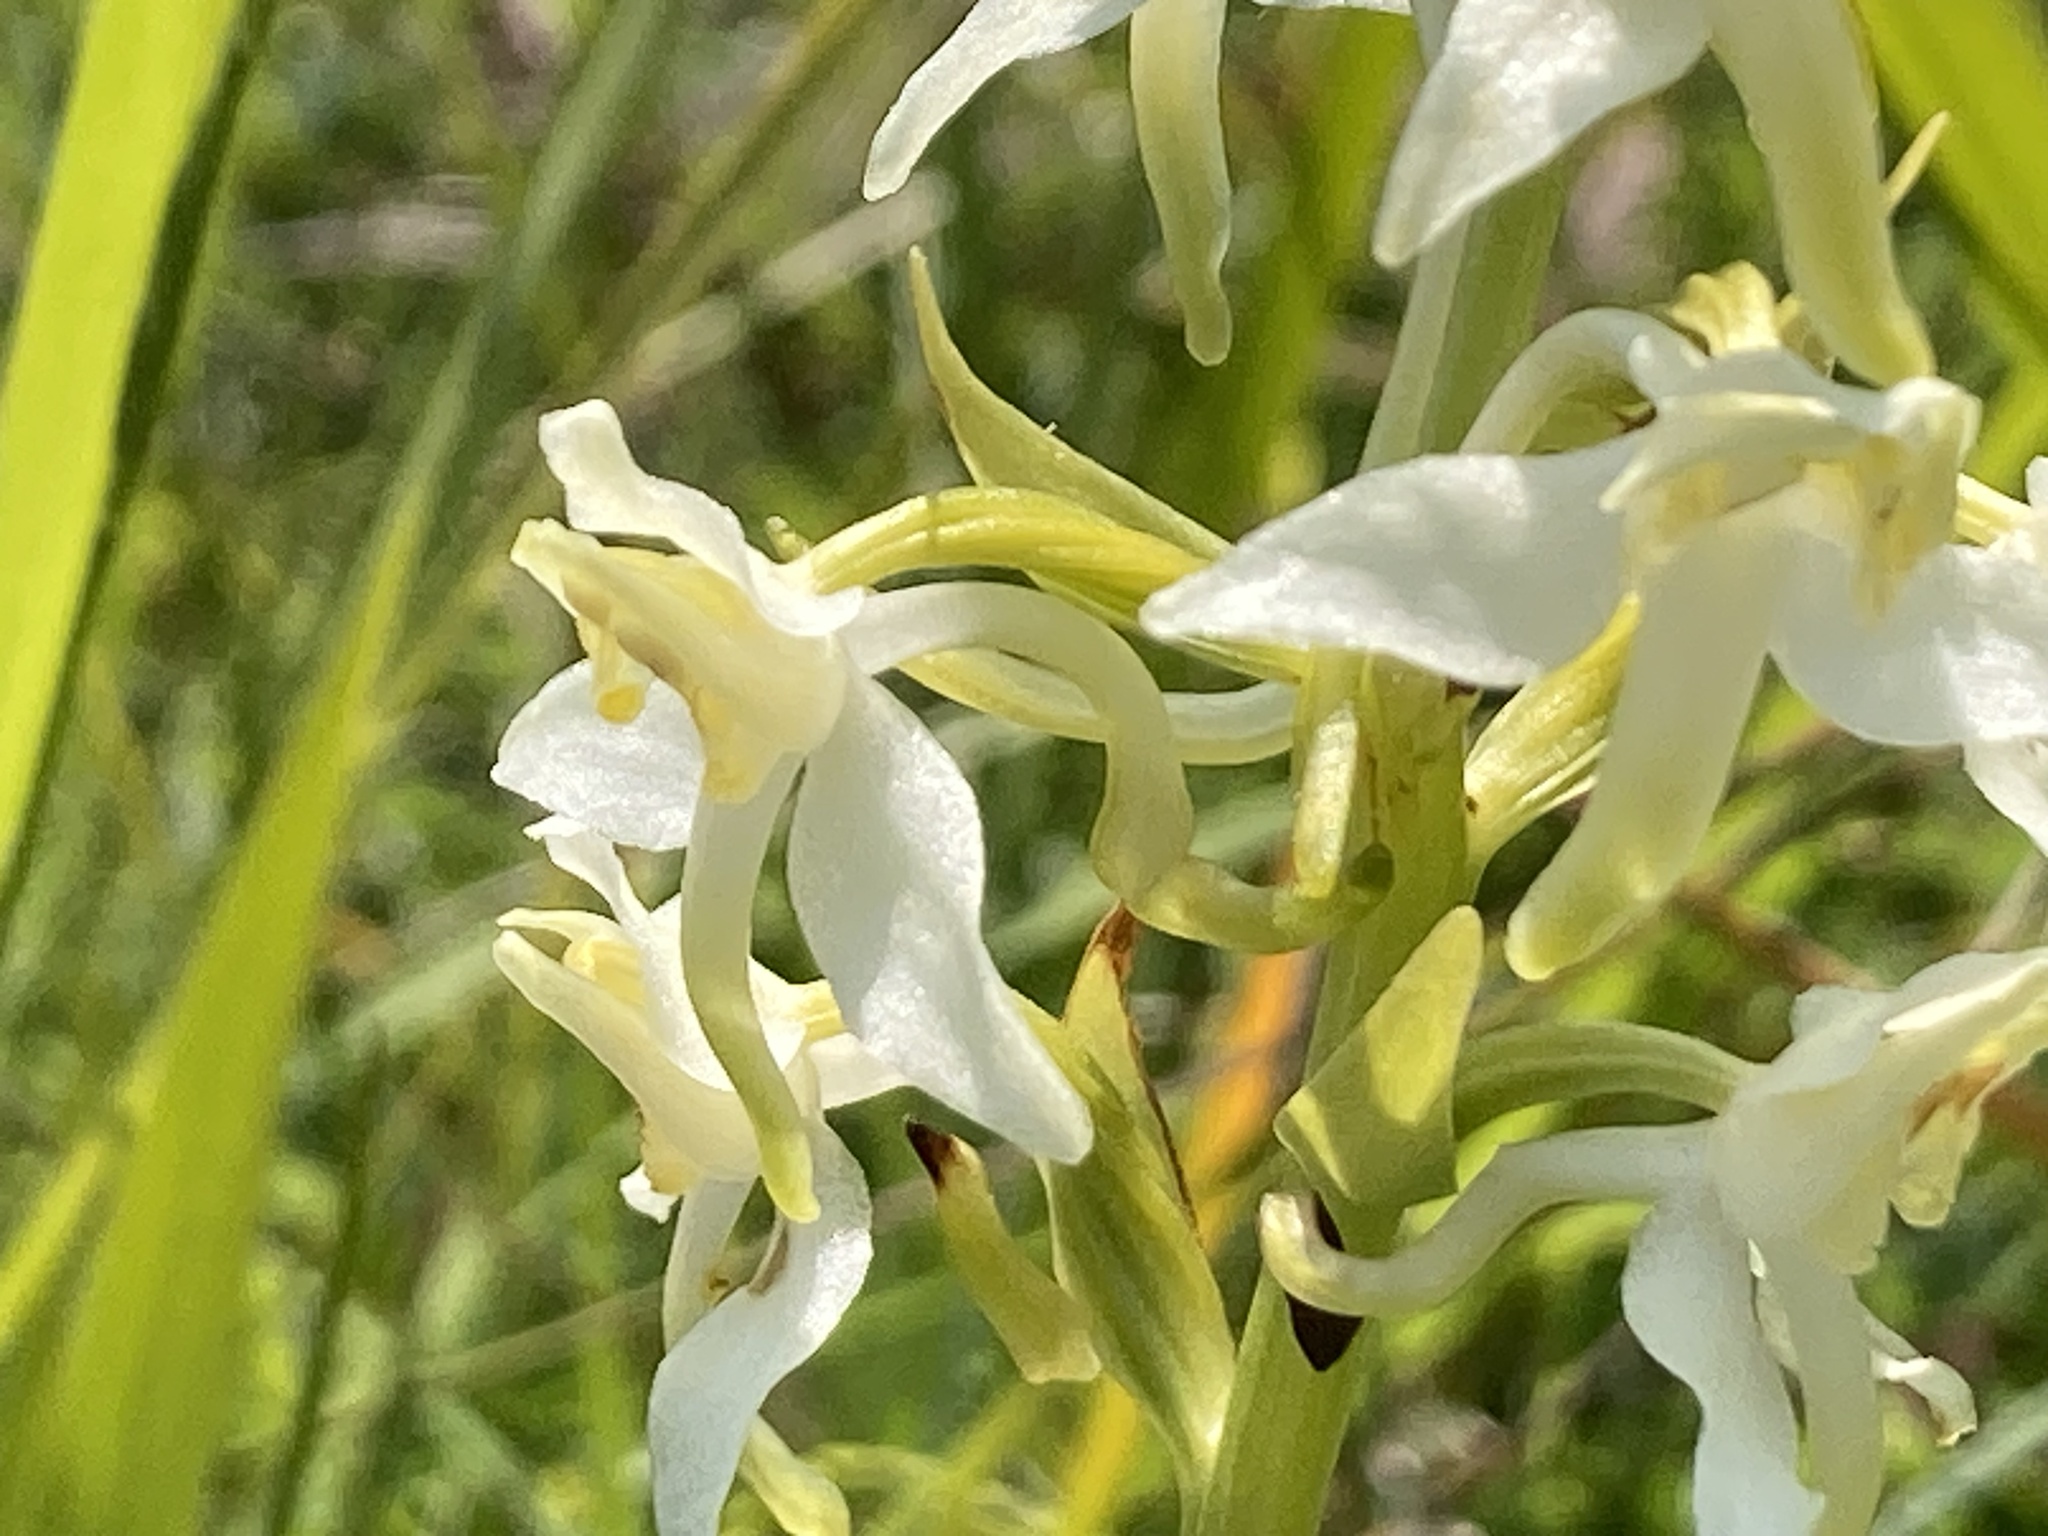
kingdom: Plantae
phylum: Tracheophyta
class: Liliopsida
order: Asparagales
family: Orchidaceae
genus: Platanthera
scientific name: Platanthera chlorantha
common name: Greater butterfly-orchid
